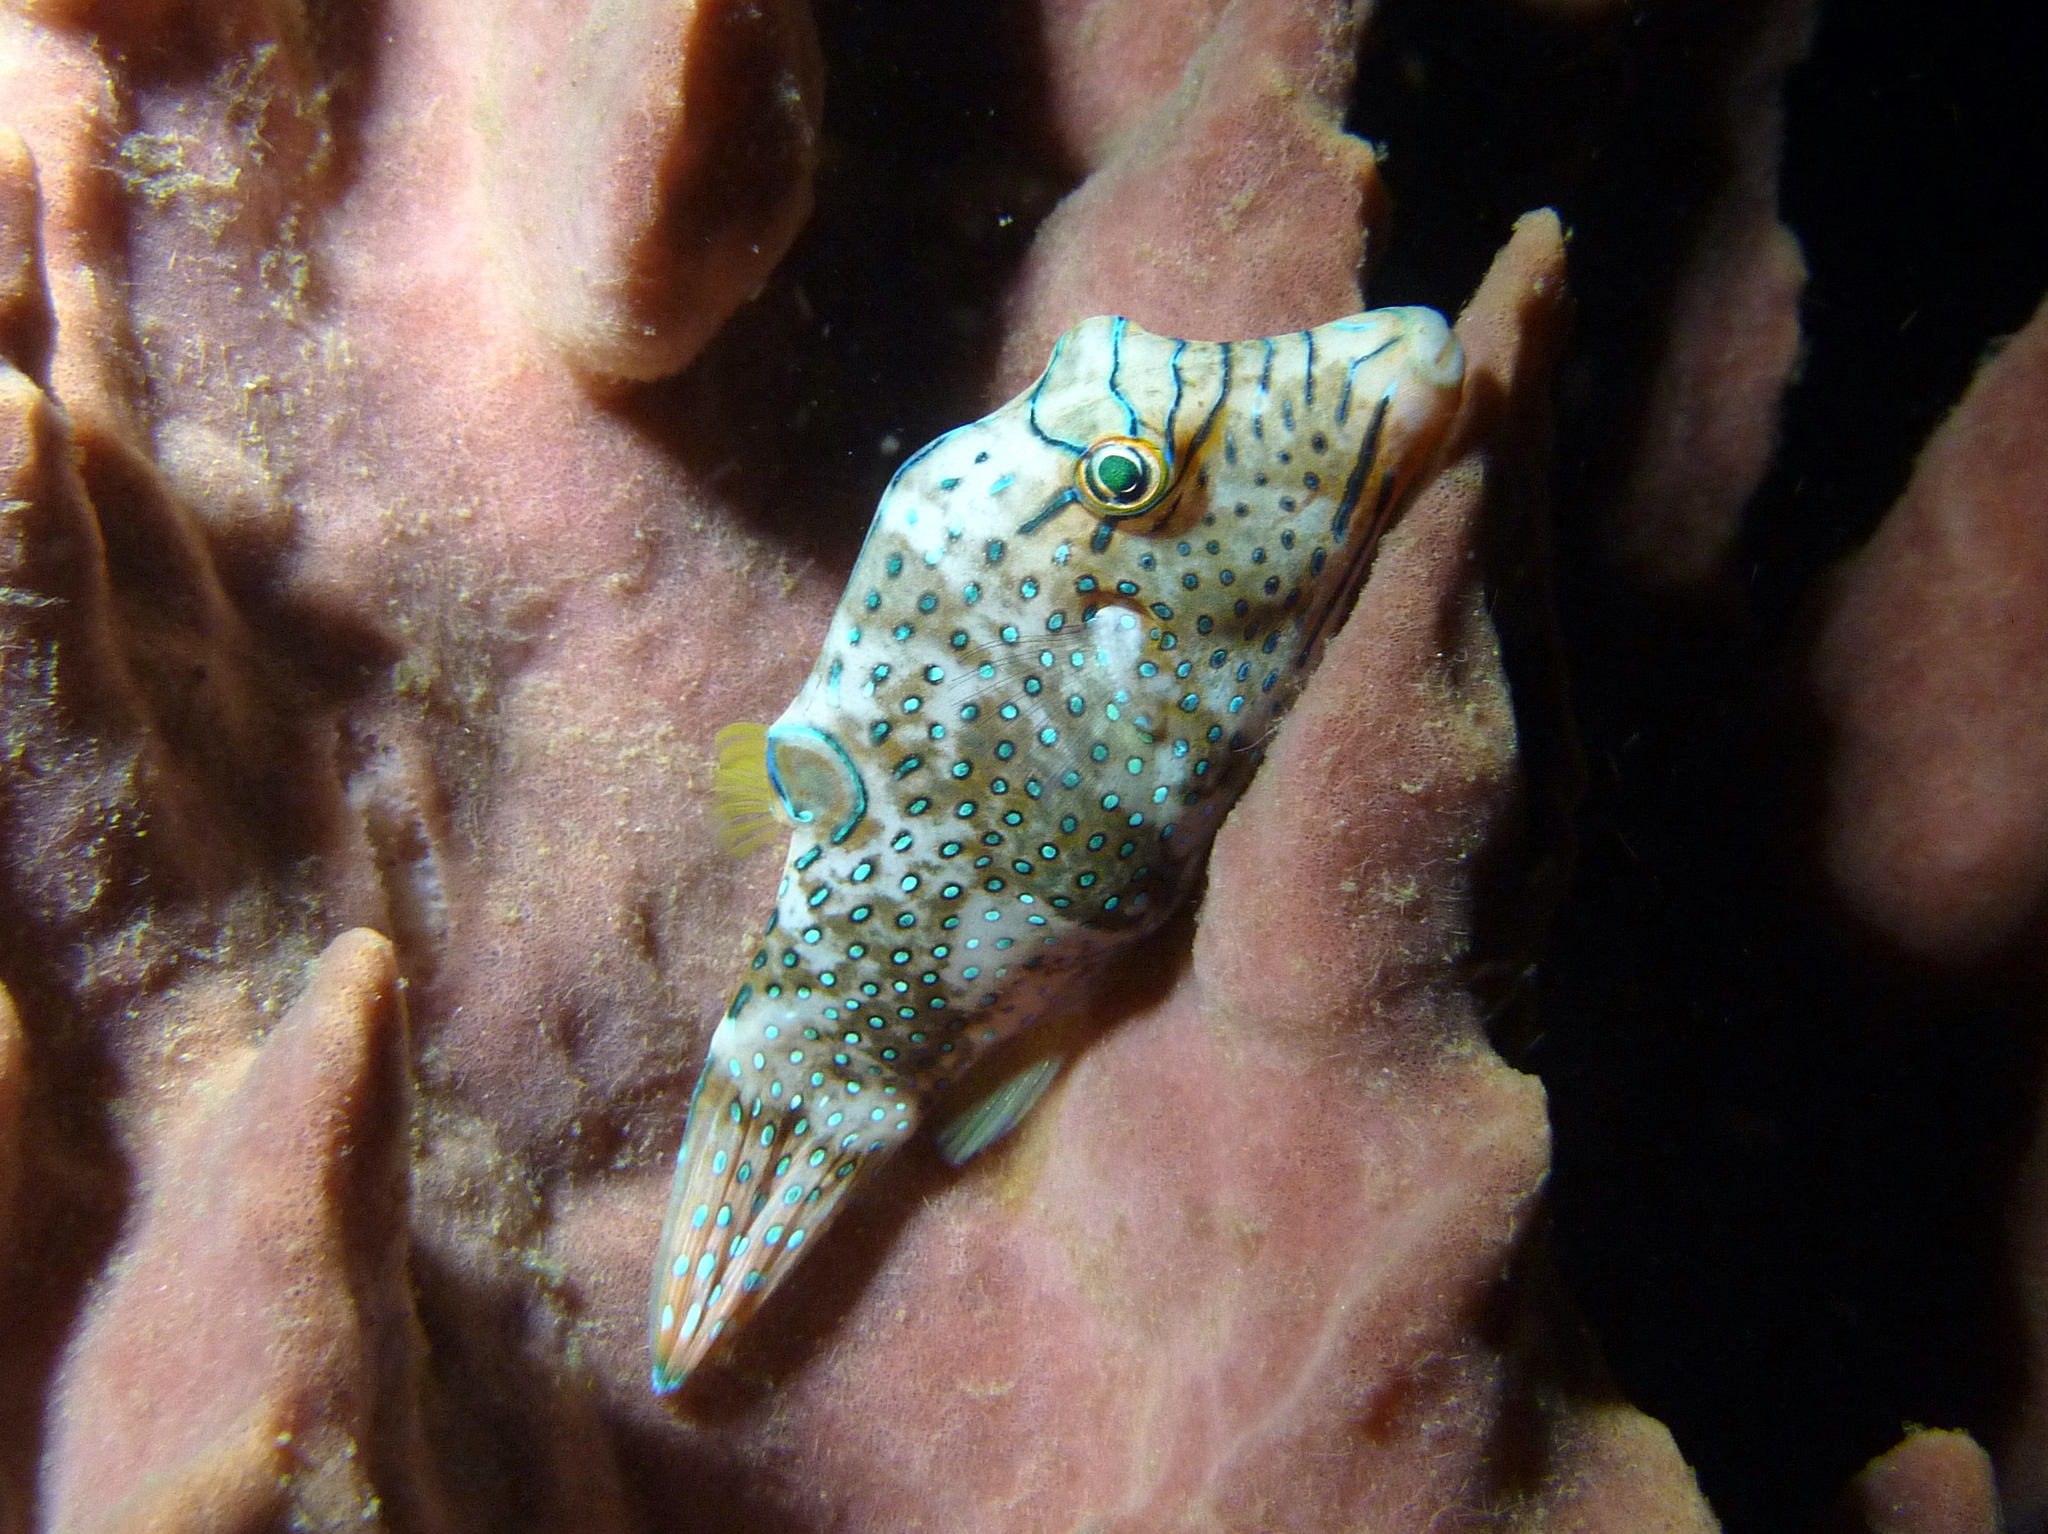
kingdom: Animalia
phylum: Chordata
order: Tetraodontiformes
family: Tetraodontidae
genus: Canthigaster
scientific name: Canthigaster papua
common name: False-eyed pufferfish
